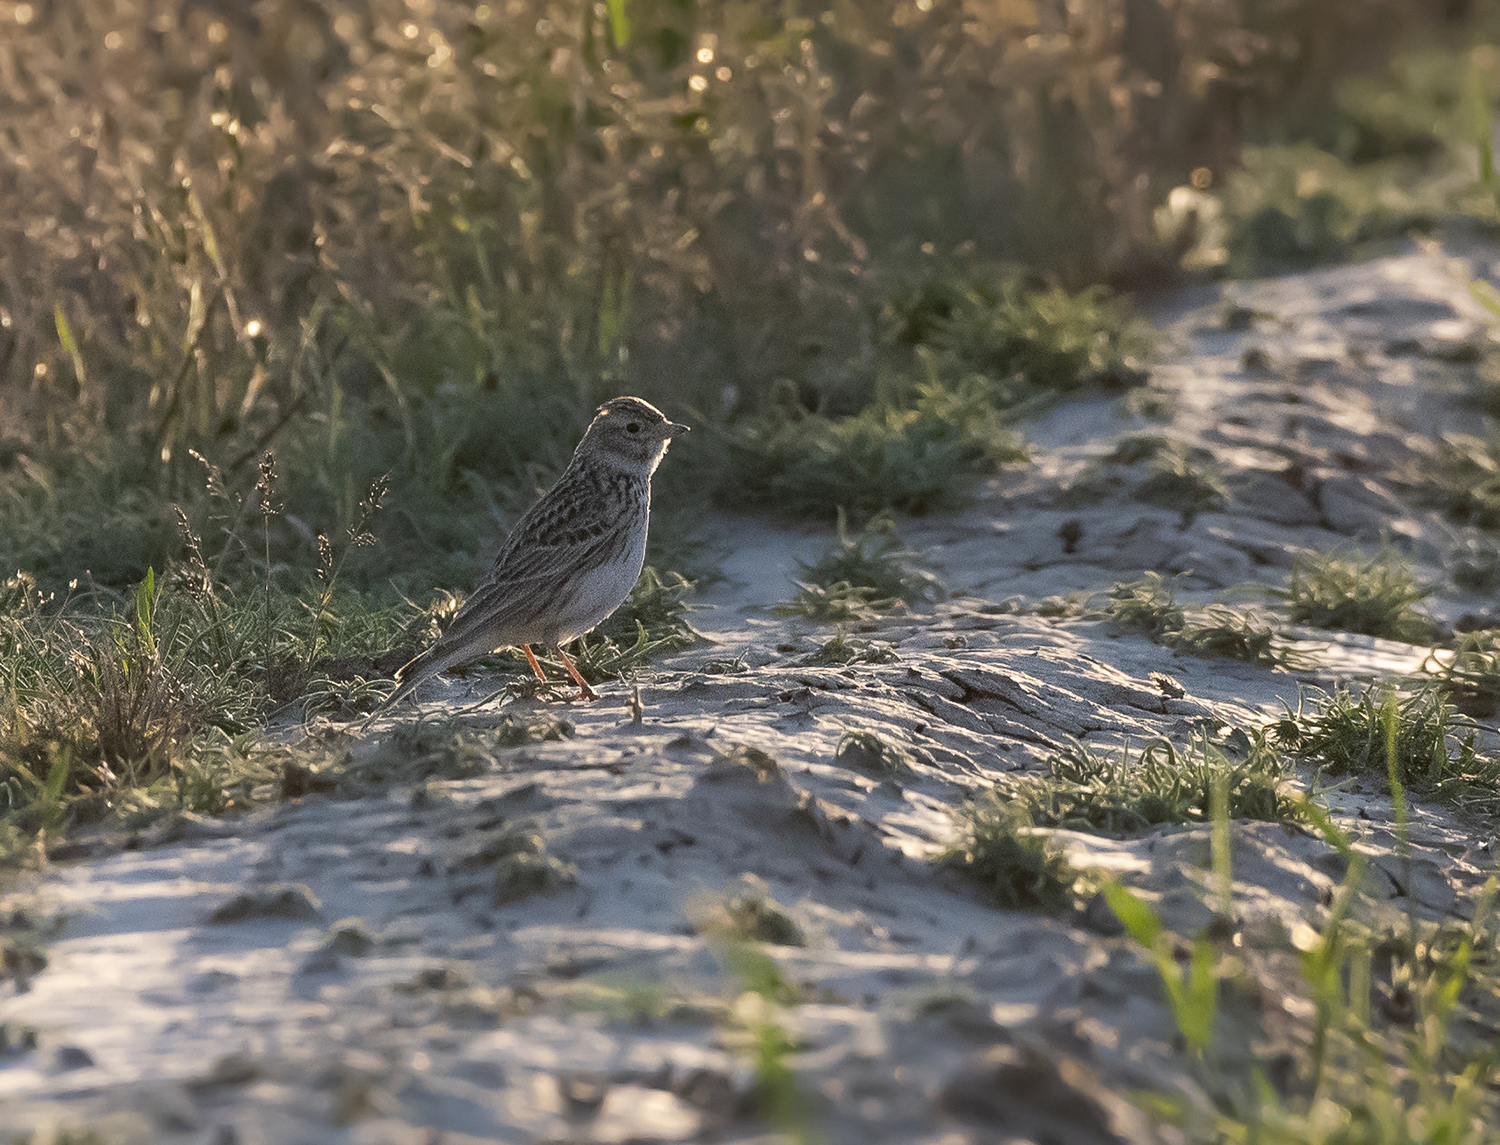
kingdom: Animalia
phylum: Chordata
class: Aves
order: Passeriformes
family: Alaudidae
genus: Calandrella
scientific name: Calandrella rufescens
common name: Lesser short-toed lark
